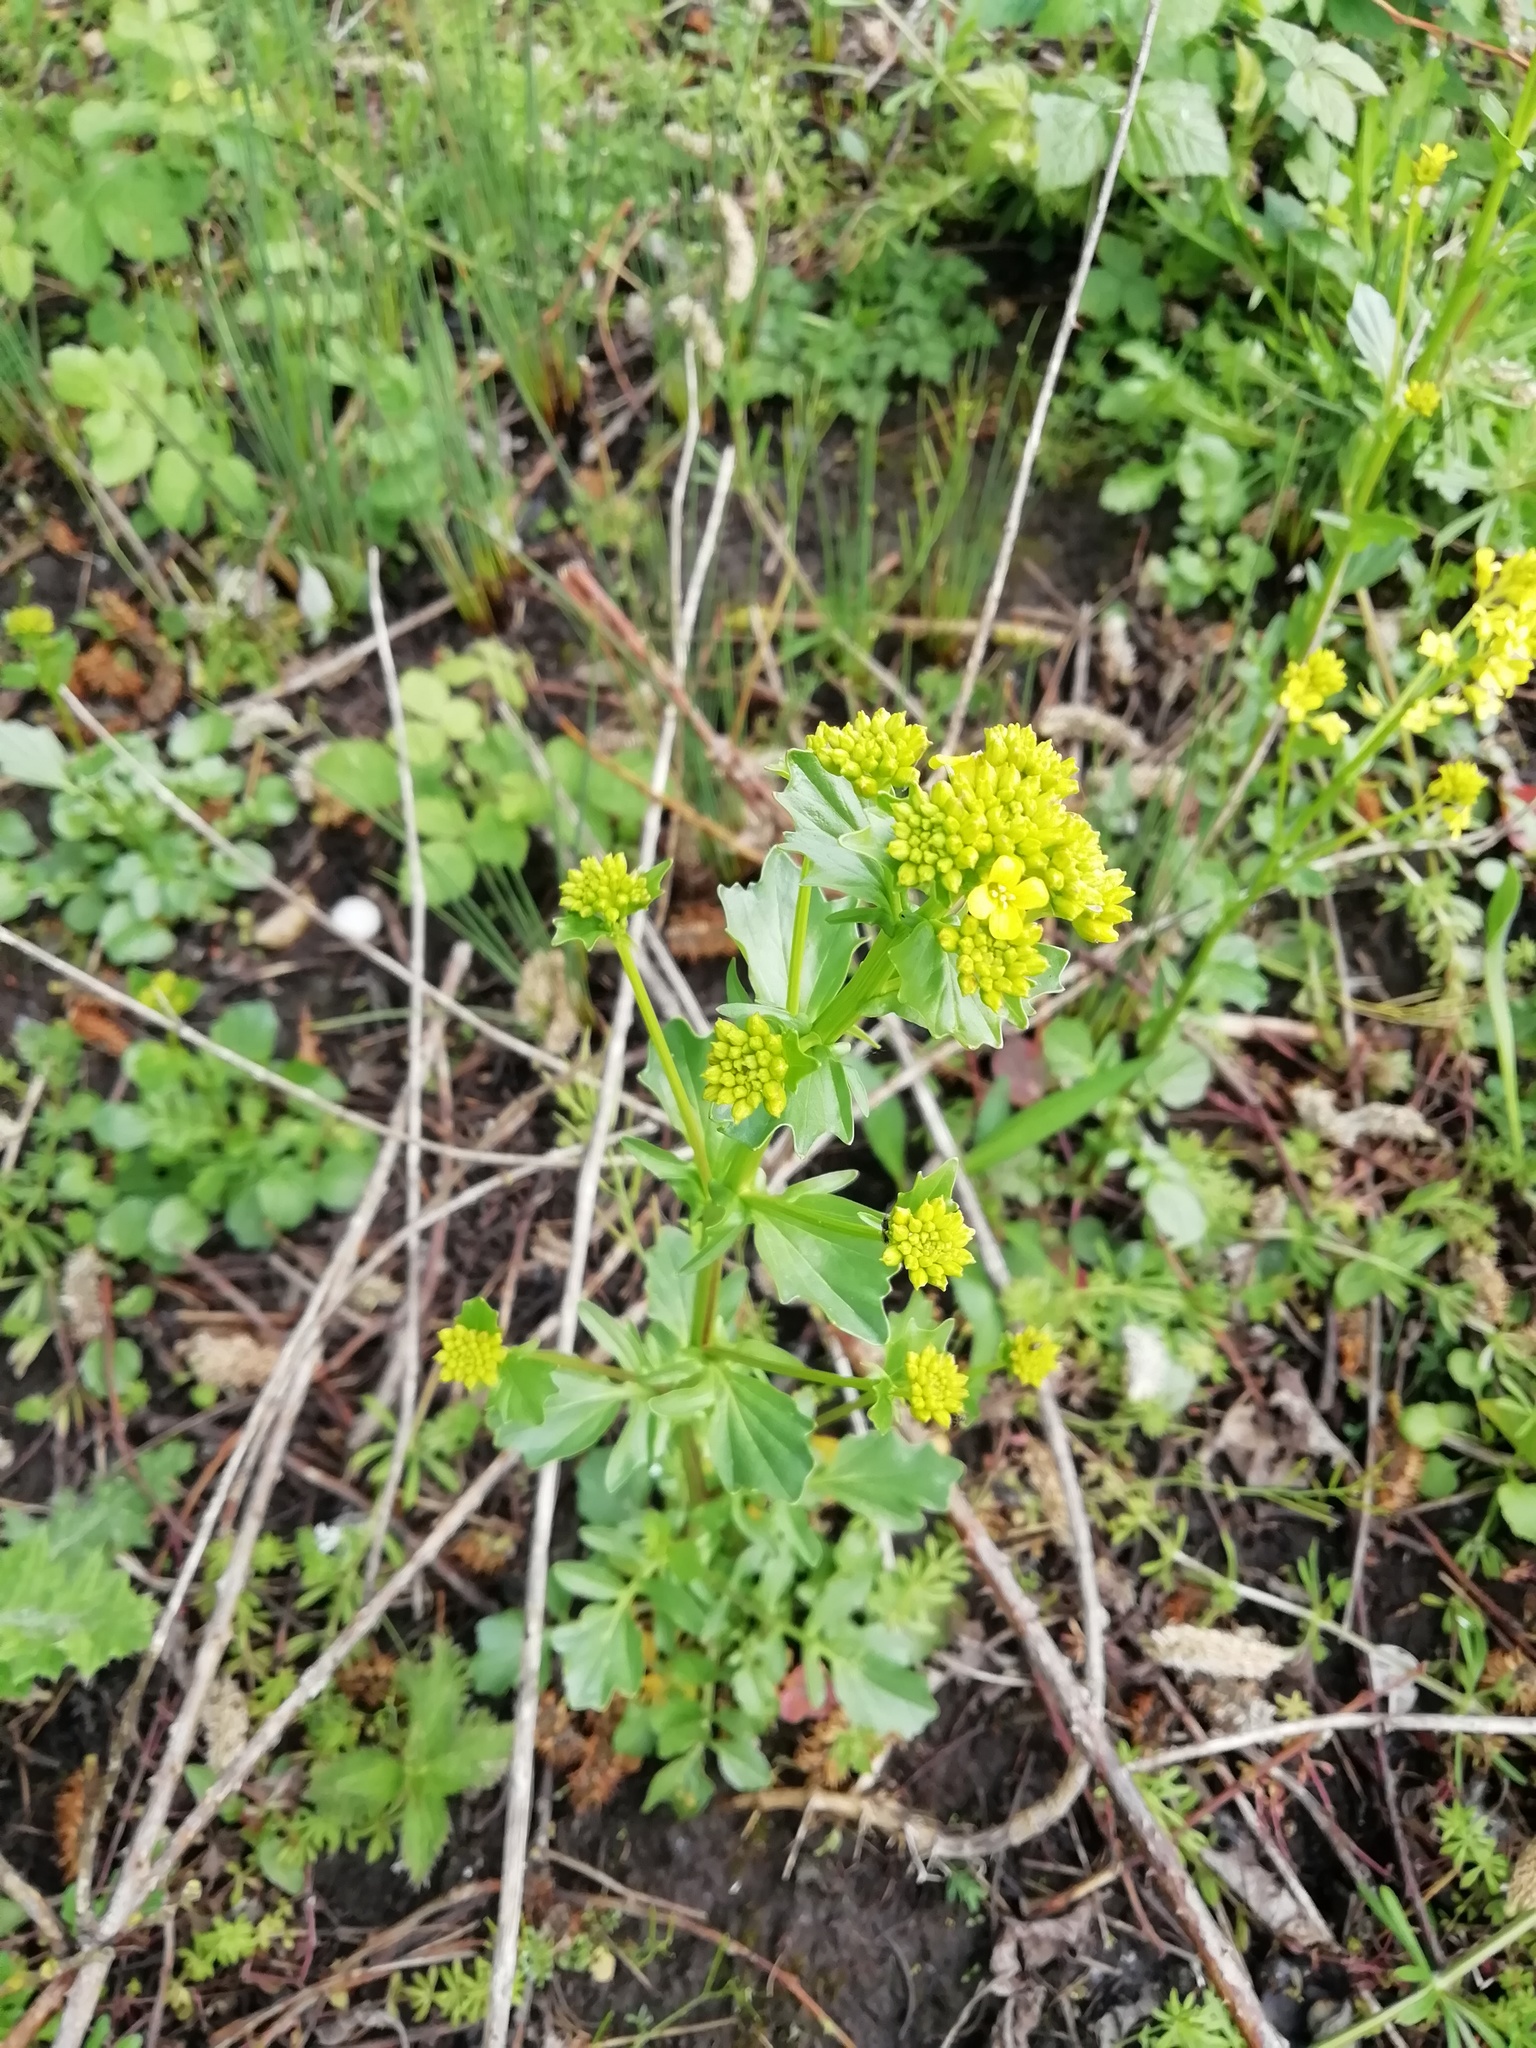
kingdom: Plantae
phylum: Tracheophyta
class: Magnoliopsida
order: Brassicales
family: Brassicaceae
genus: Barbarea
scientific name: Barbarea vulgaris
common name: Cressy-greens
